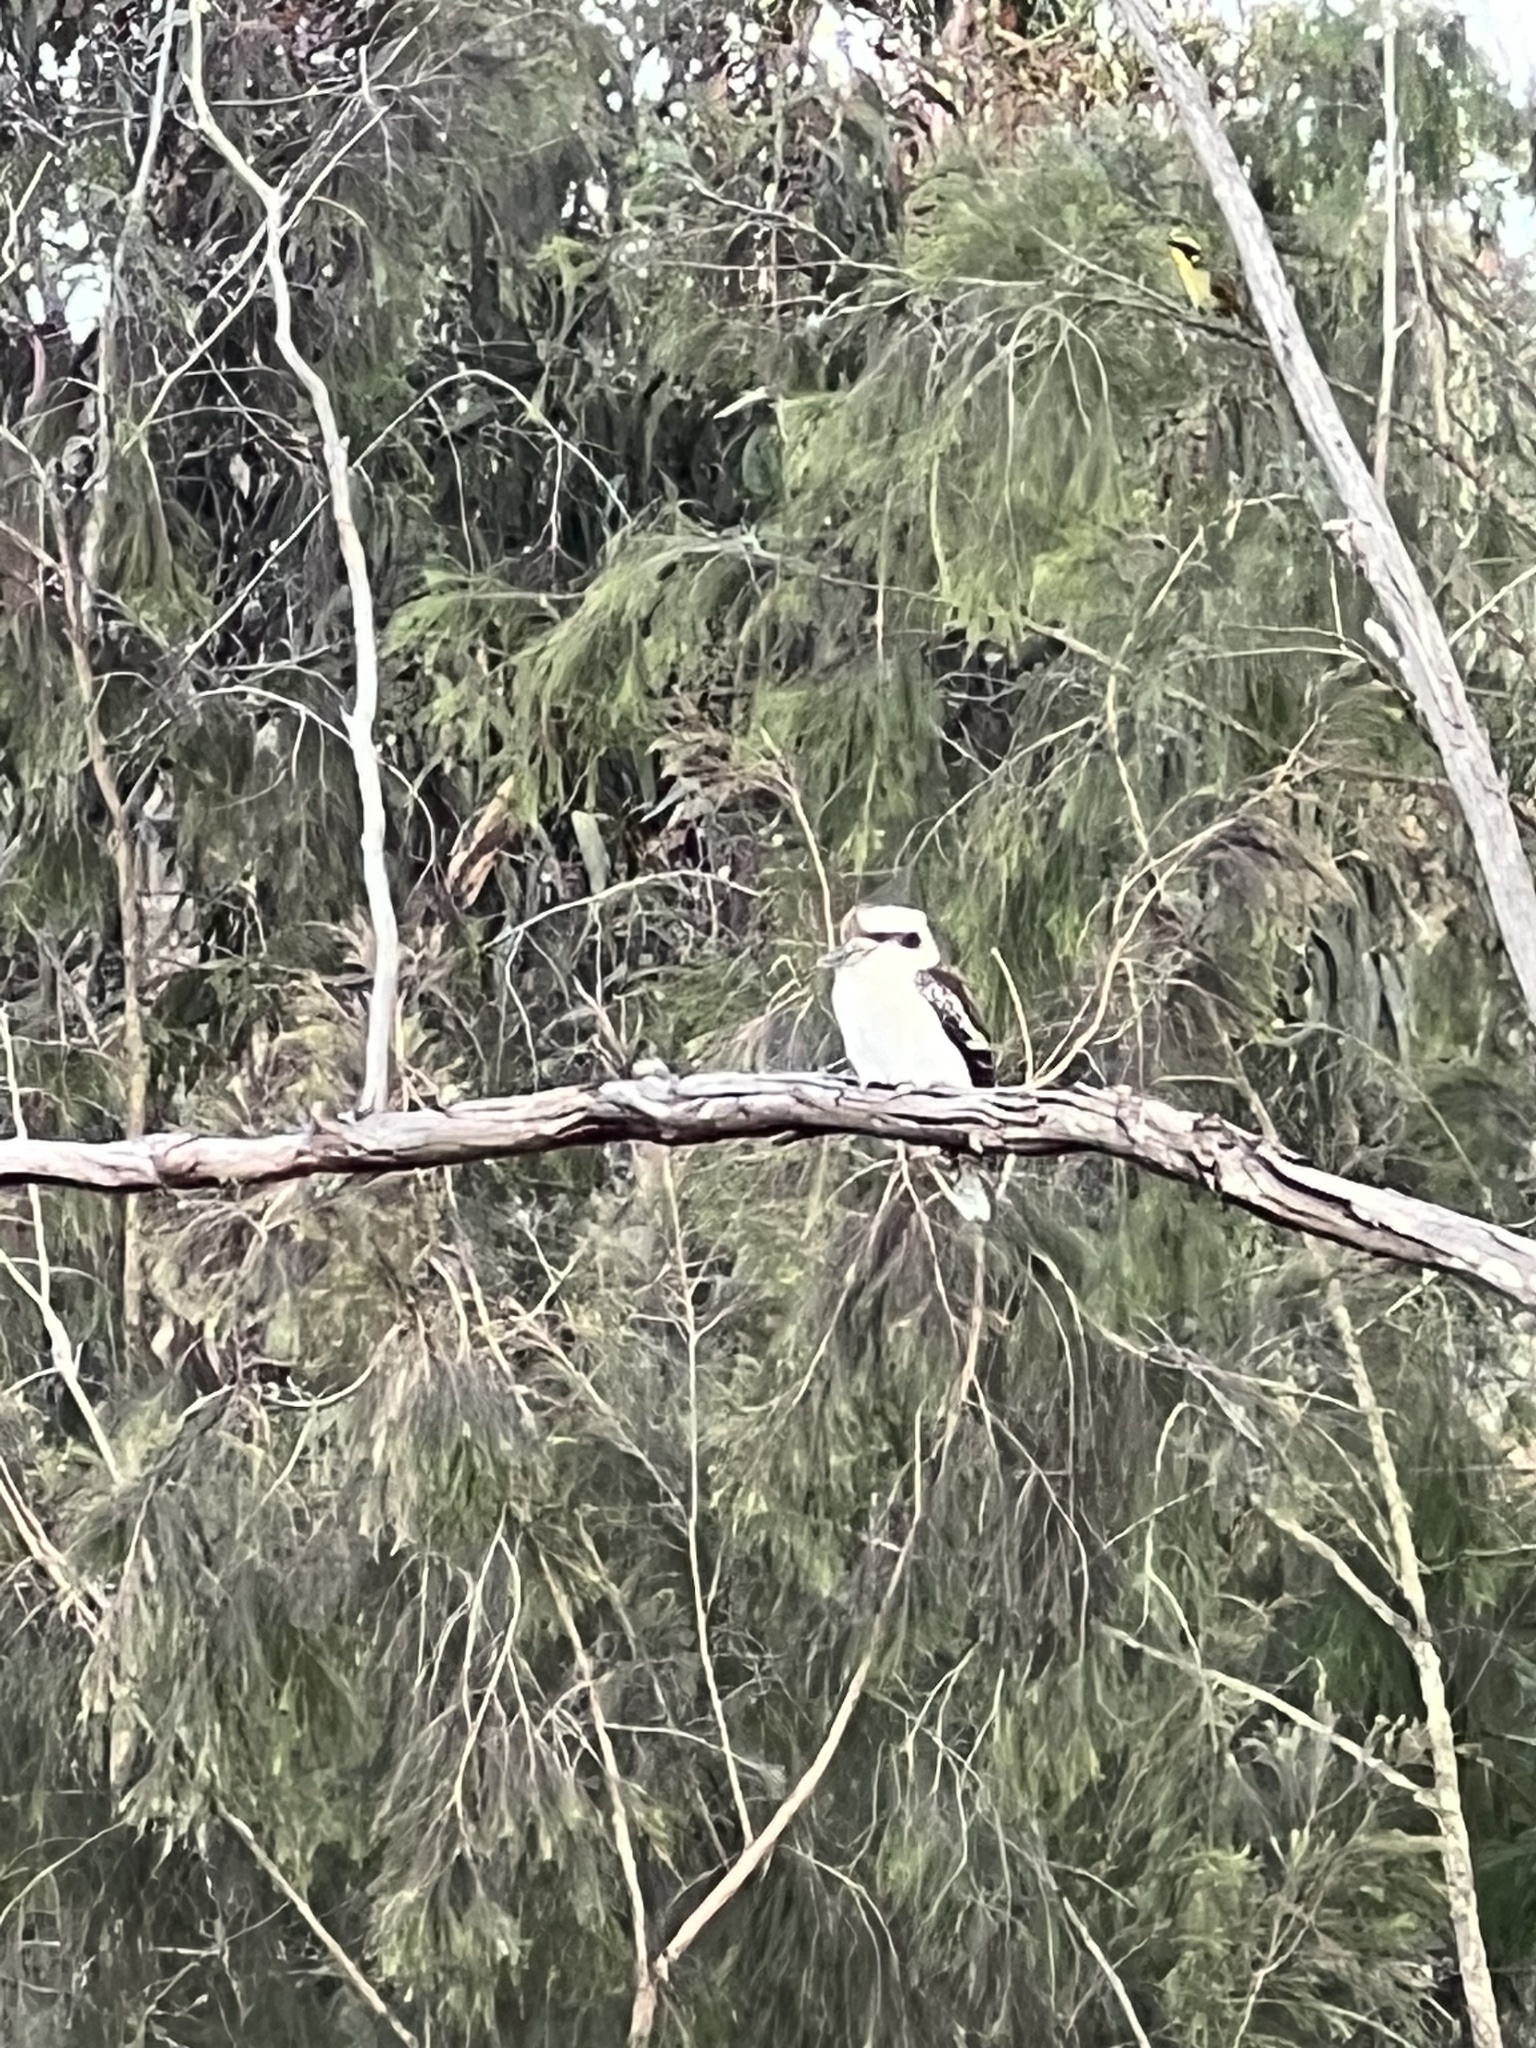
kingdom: Animalia
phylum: Chordata
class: Aves
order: Coraciiformes
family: Alcedinidae
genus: Dacelo
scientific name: Dacelo novaeguineae
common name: Laughing kookaburra
